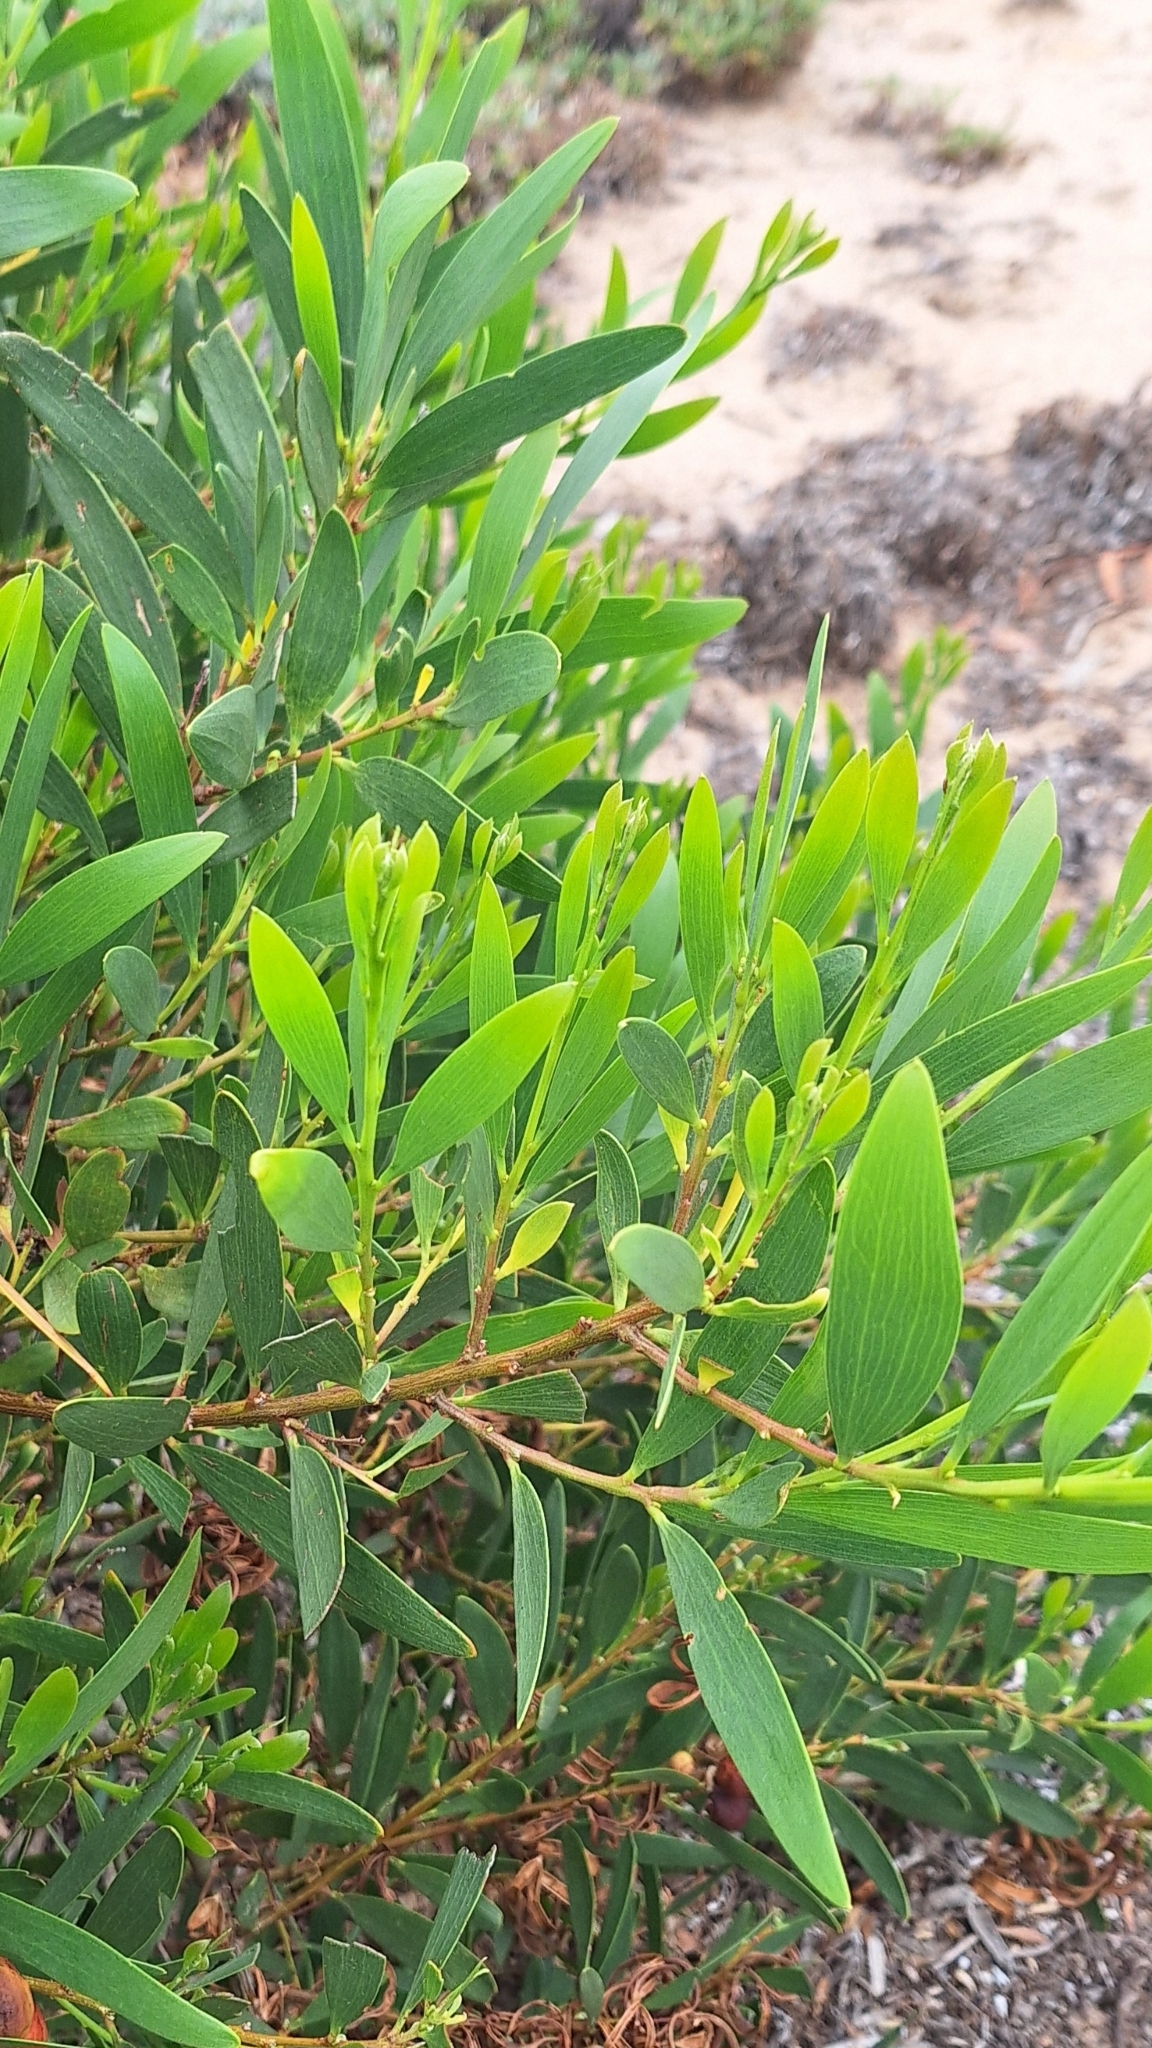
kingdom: Plantae
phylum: Tracheophyta
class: Magnoliopsida
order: Fabales
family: Fabaceae
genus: Acacia
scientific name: Acacia longifolia
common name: Sydney golden wattle
